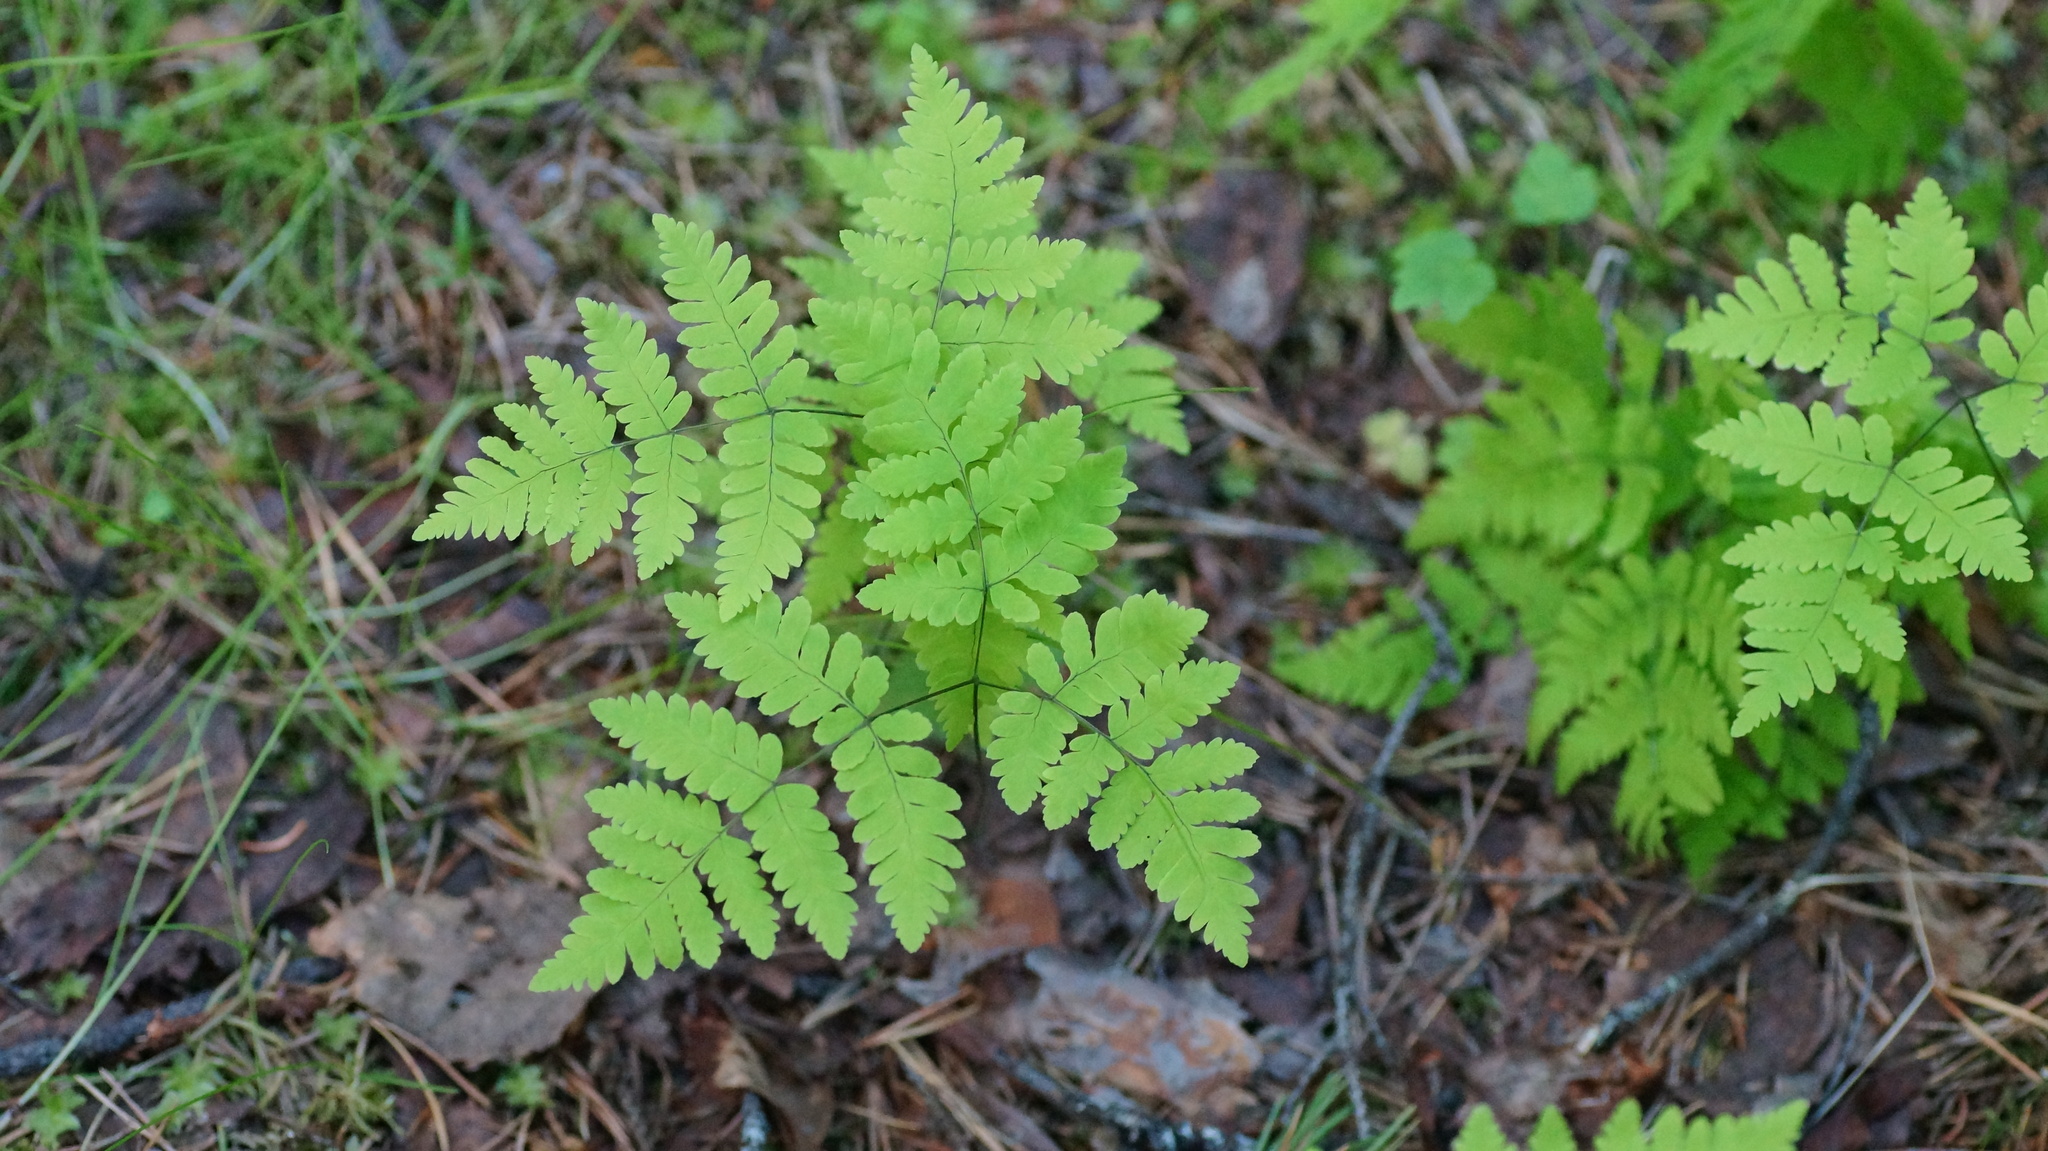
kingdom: Plantae
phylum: Tracheophyta
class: Polypodiopsida
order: Polypodiales
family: Cystopteridaceae
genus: Gymnocarpium
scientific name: Gymnocarpium dryopteris
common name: Oak fern
